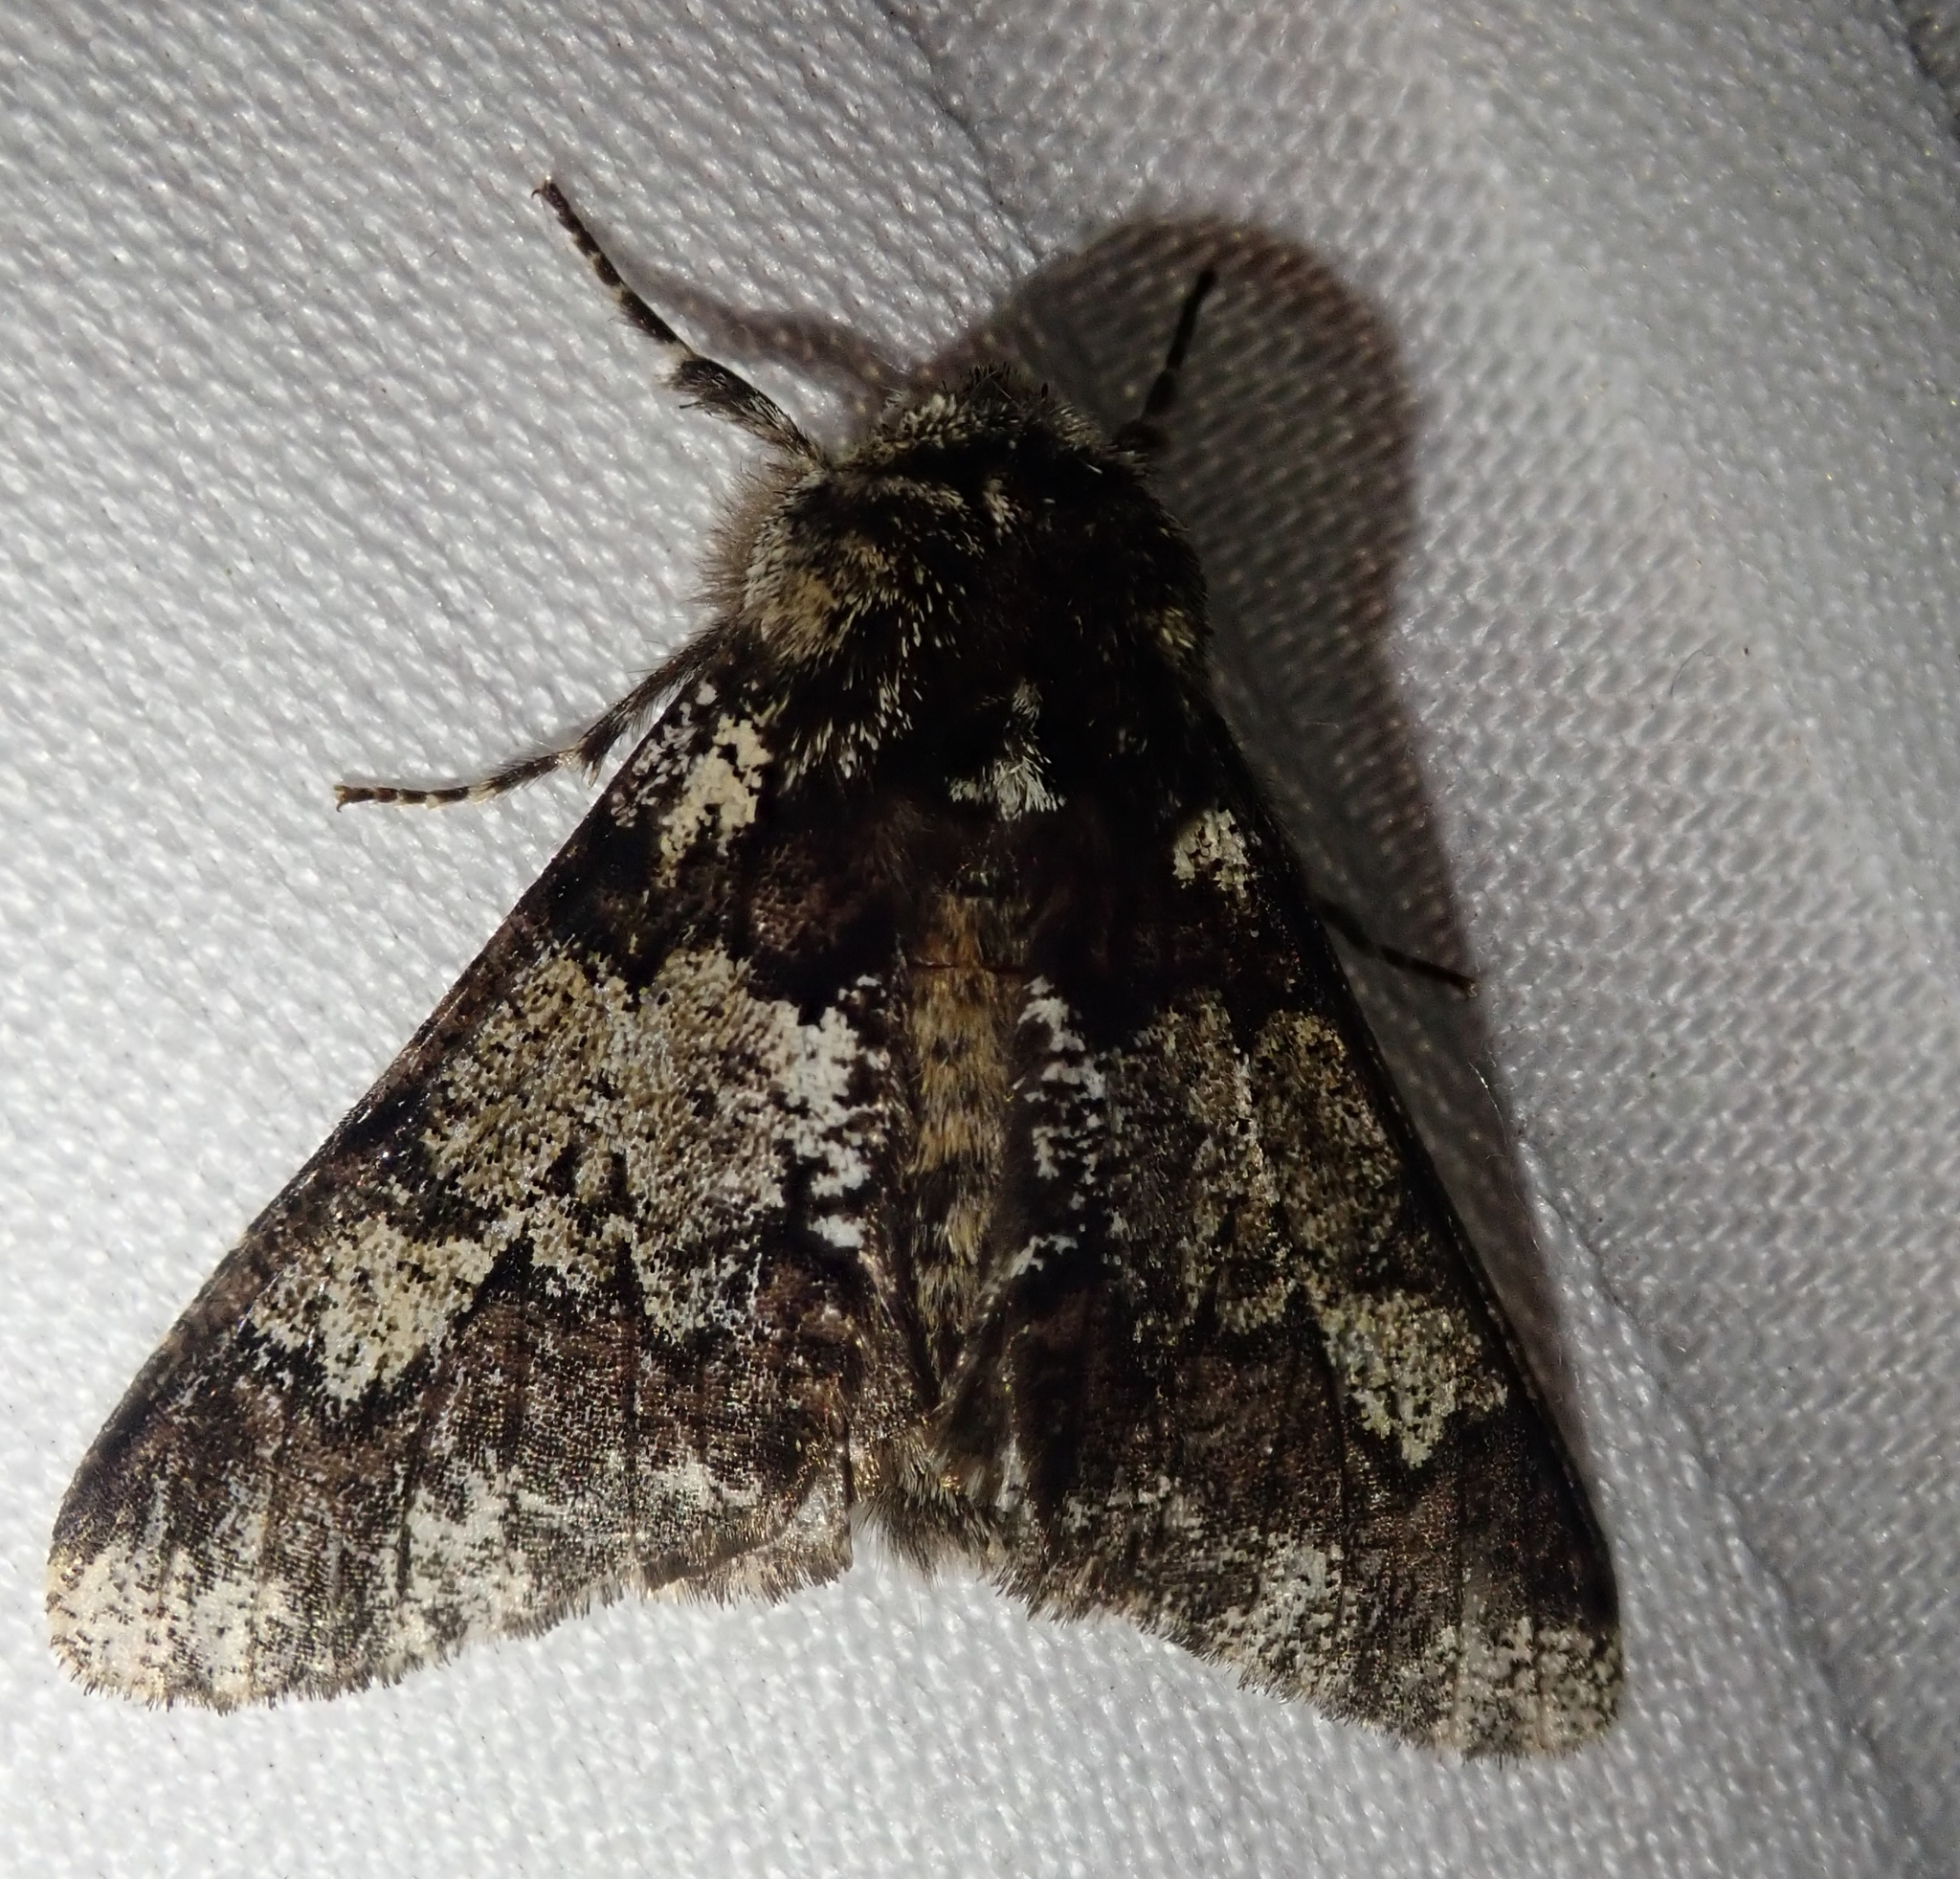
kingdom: Animalia
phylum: Arthropoda
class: Insecta
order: Lepidoptera
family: Geometridae
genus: Biston
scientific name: Biston strataria
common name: Oak beauty
